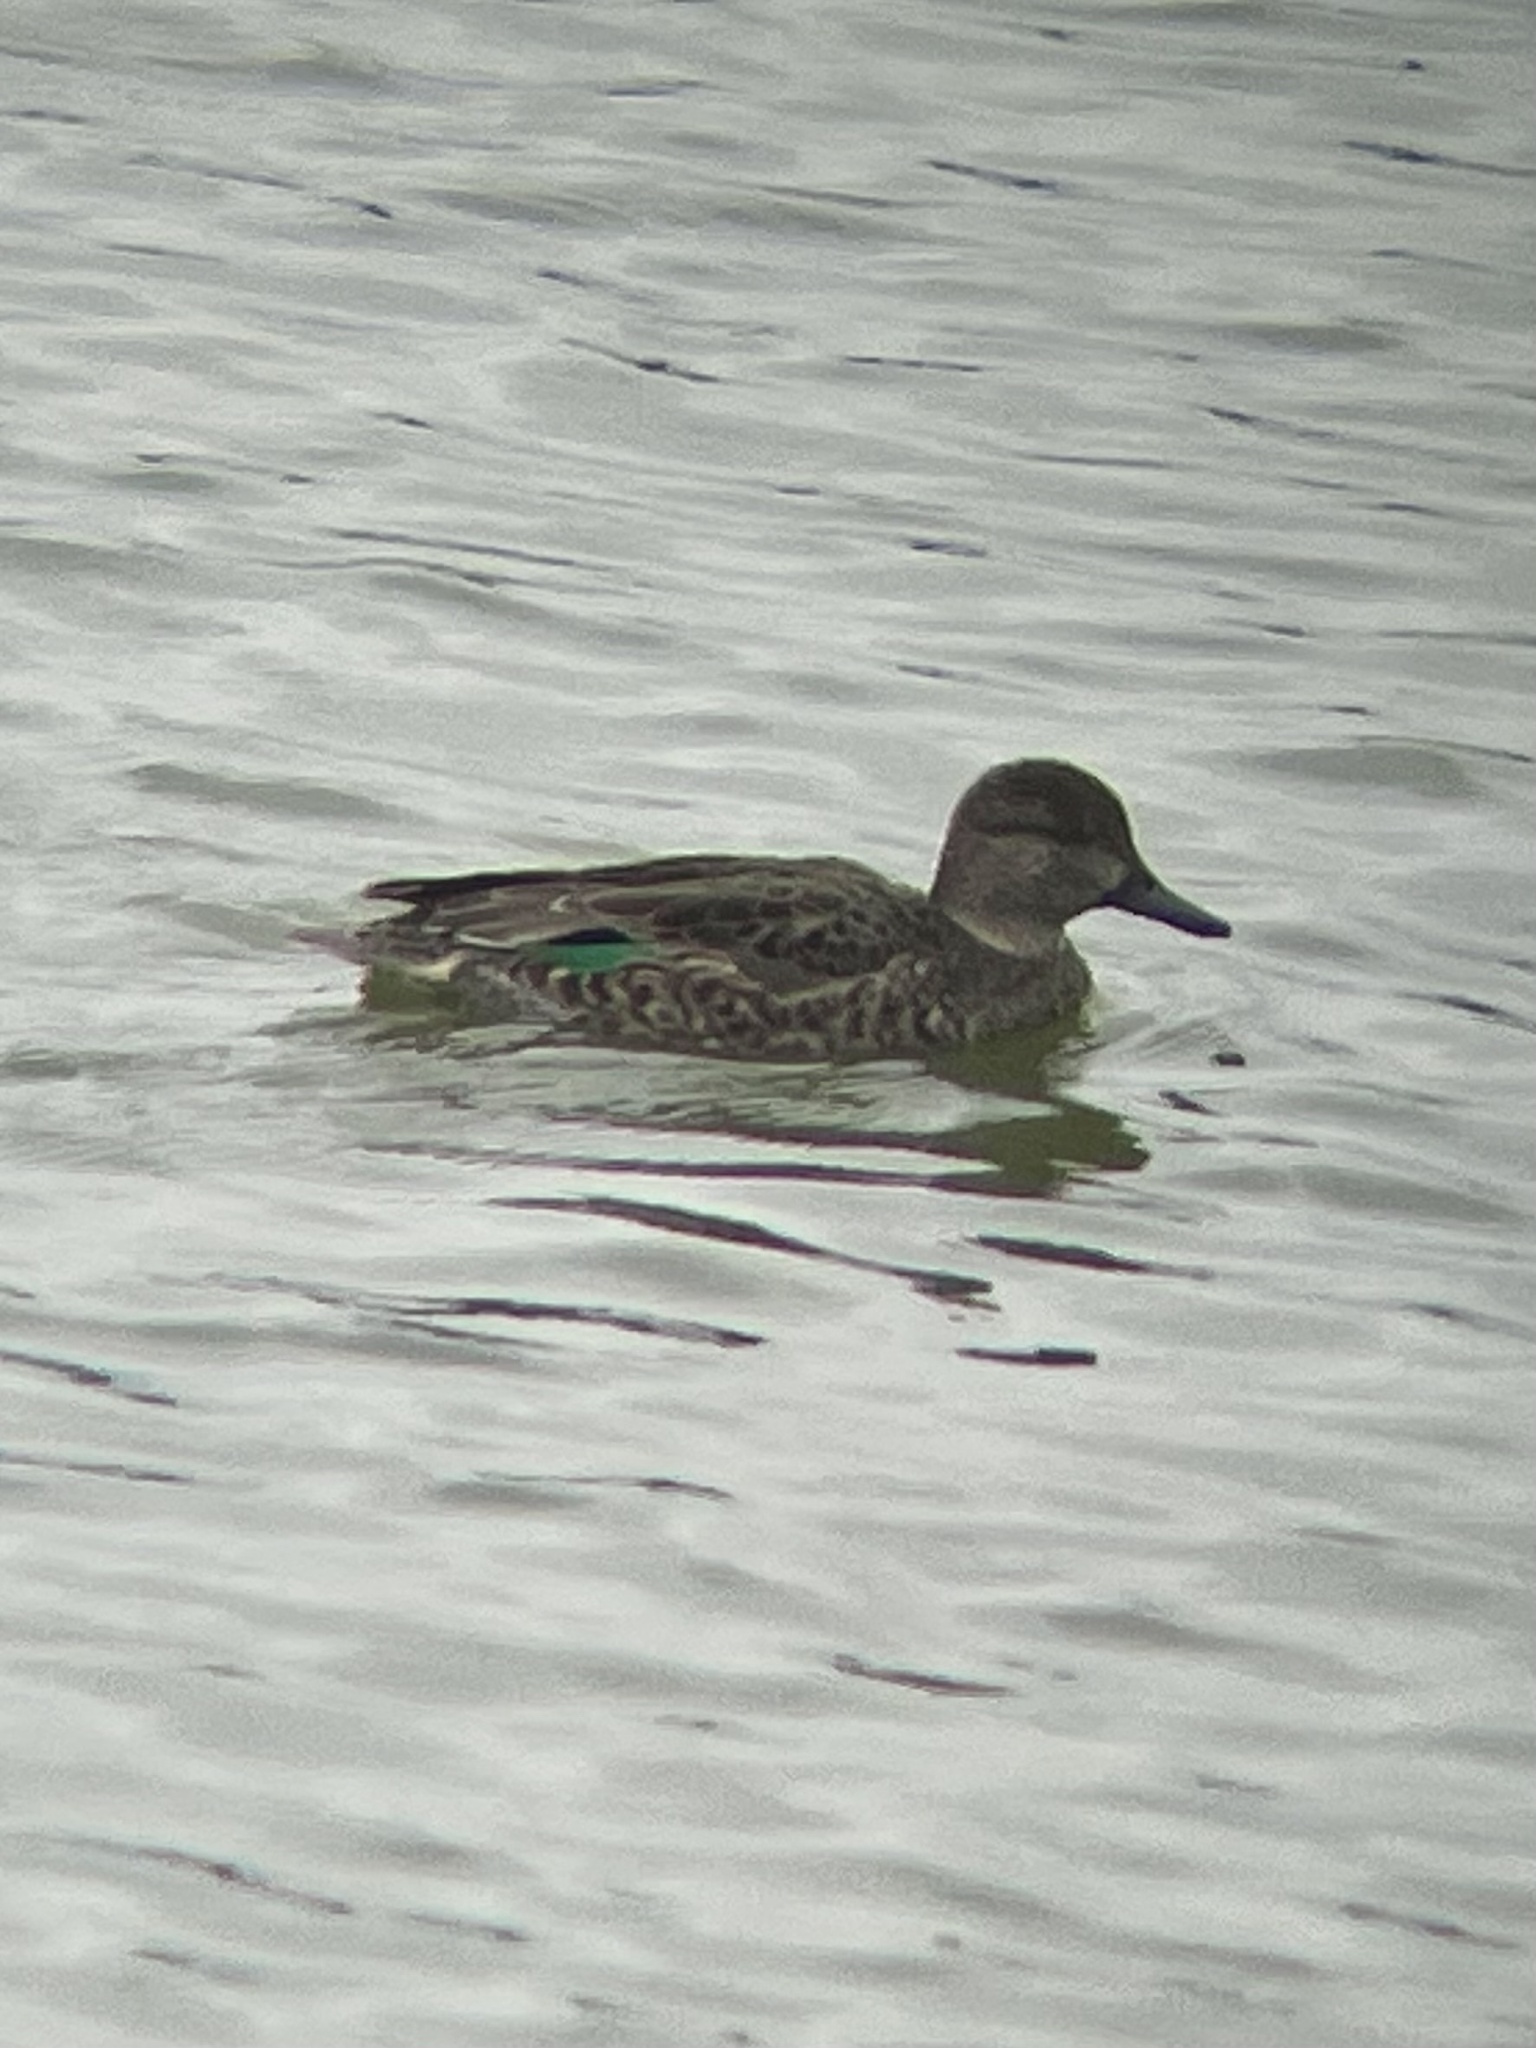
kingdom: Animalia
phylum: Chordata
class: Aves
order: Anseriformes
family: Anatidae
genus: Anas
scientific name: Anas crecca
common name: Eurasian teal
